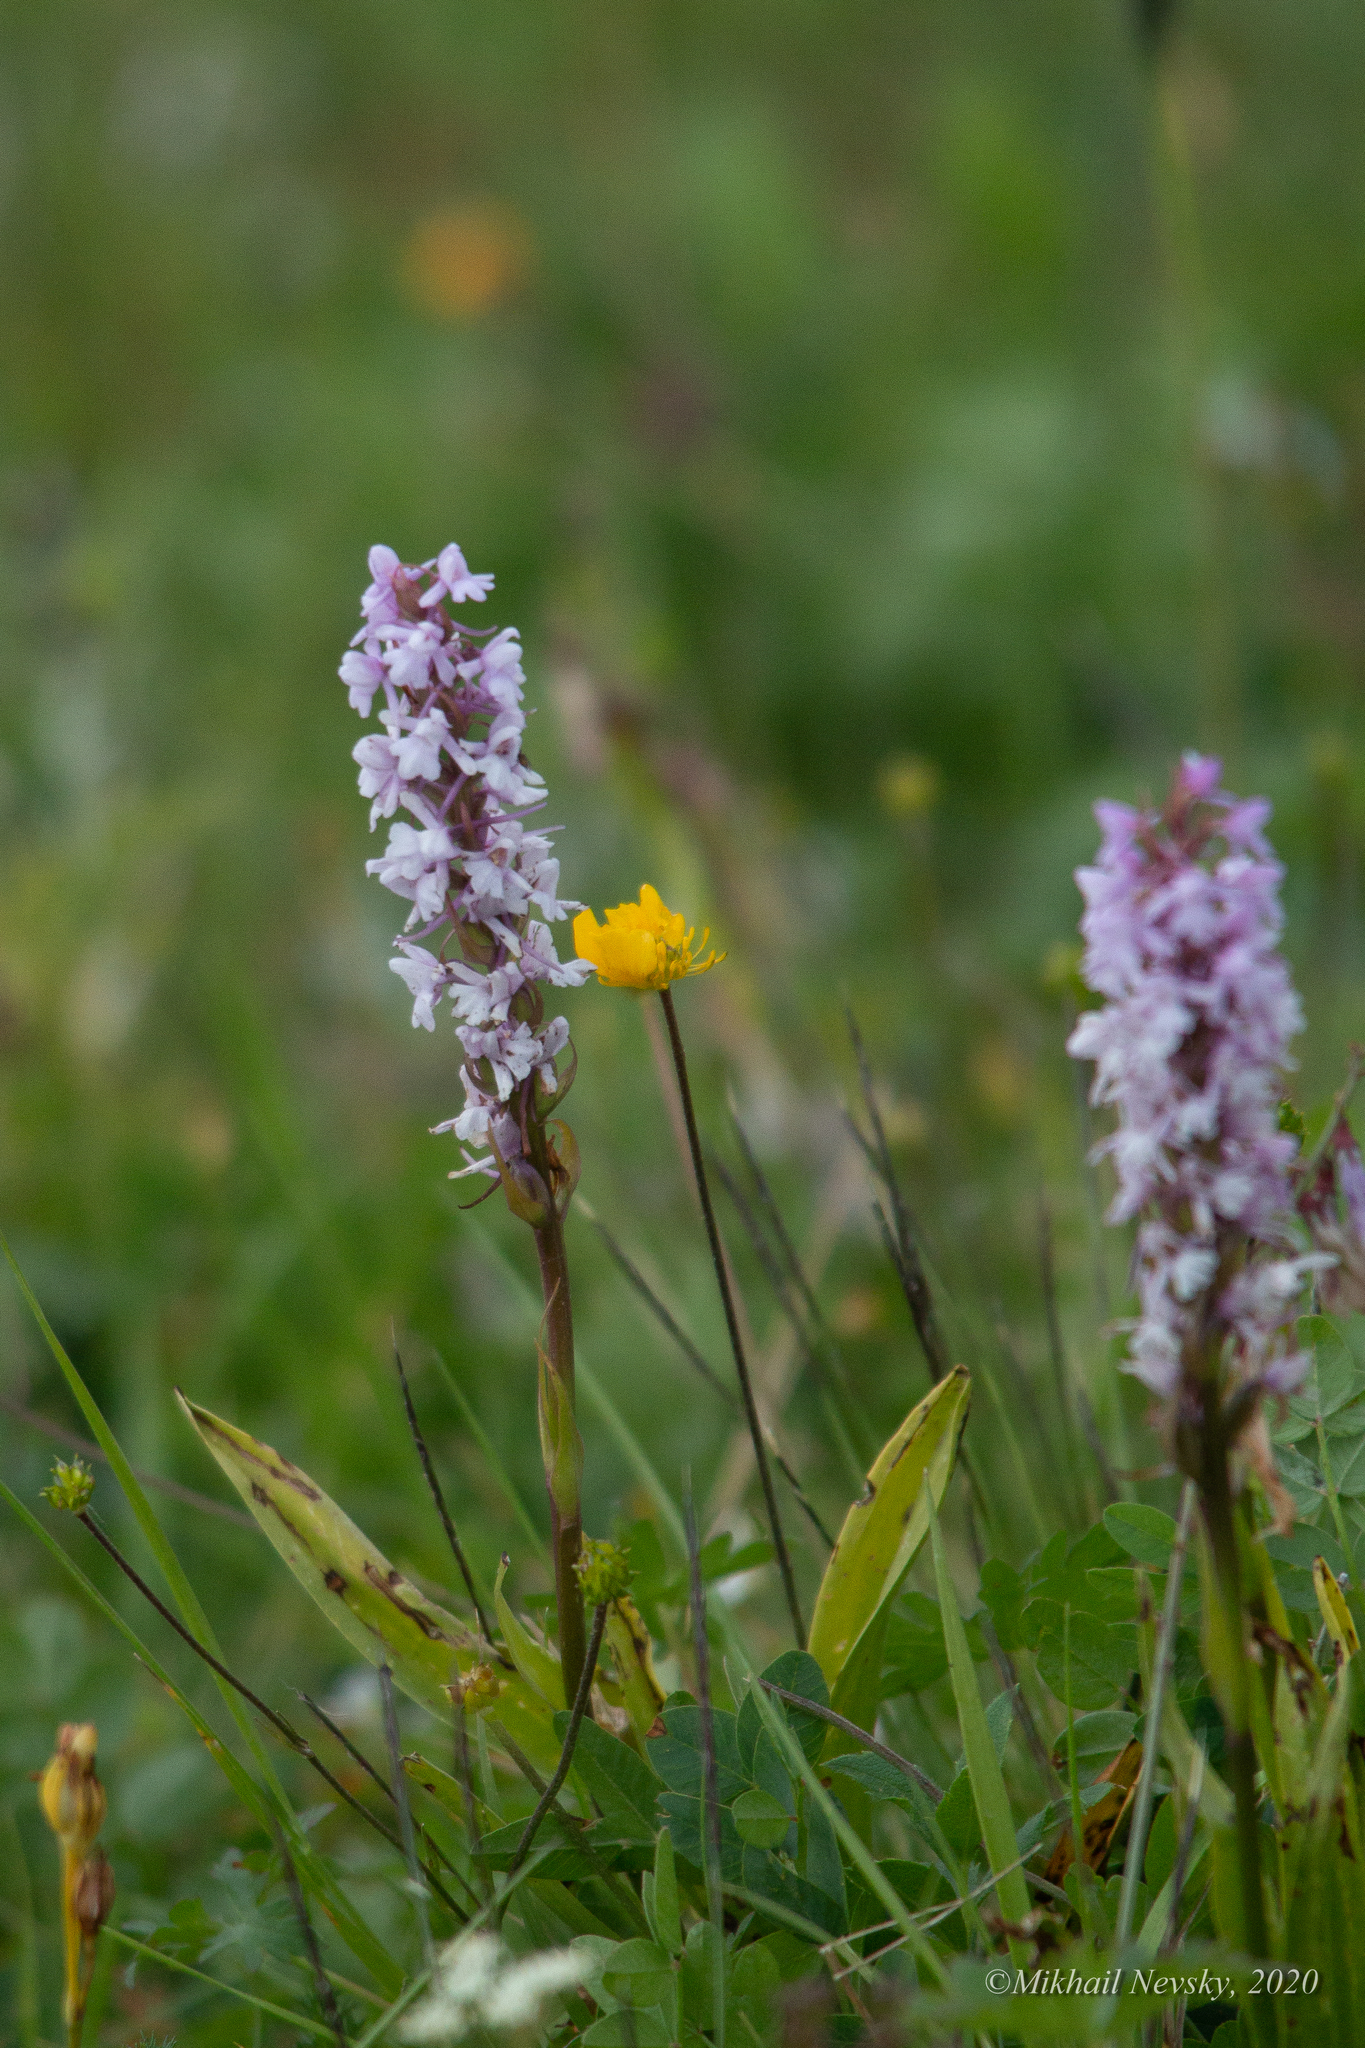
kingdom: Plantae
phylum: Tracheophyta
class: Liliopsida
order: Asparagales
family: Orchidaceae
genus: Gymnadenia
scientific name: Gymnadenia conopsea
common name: Fragrant orchid
